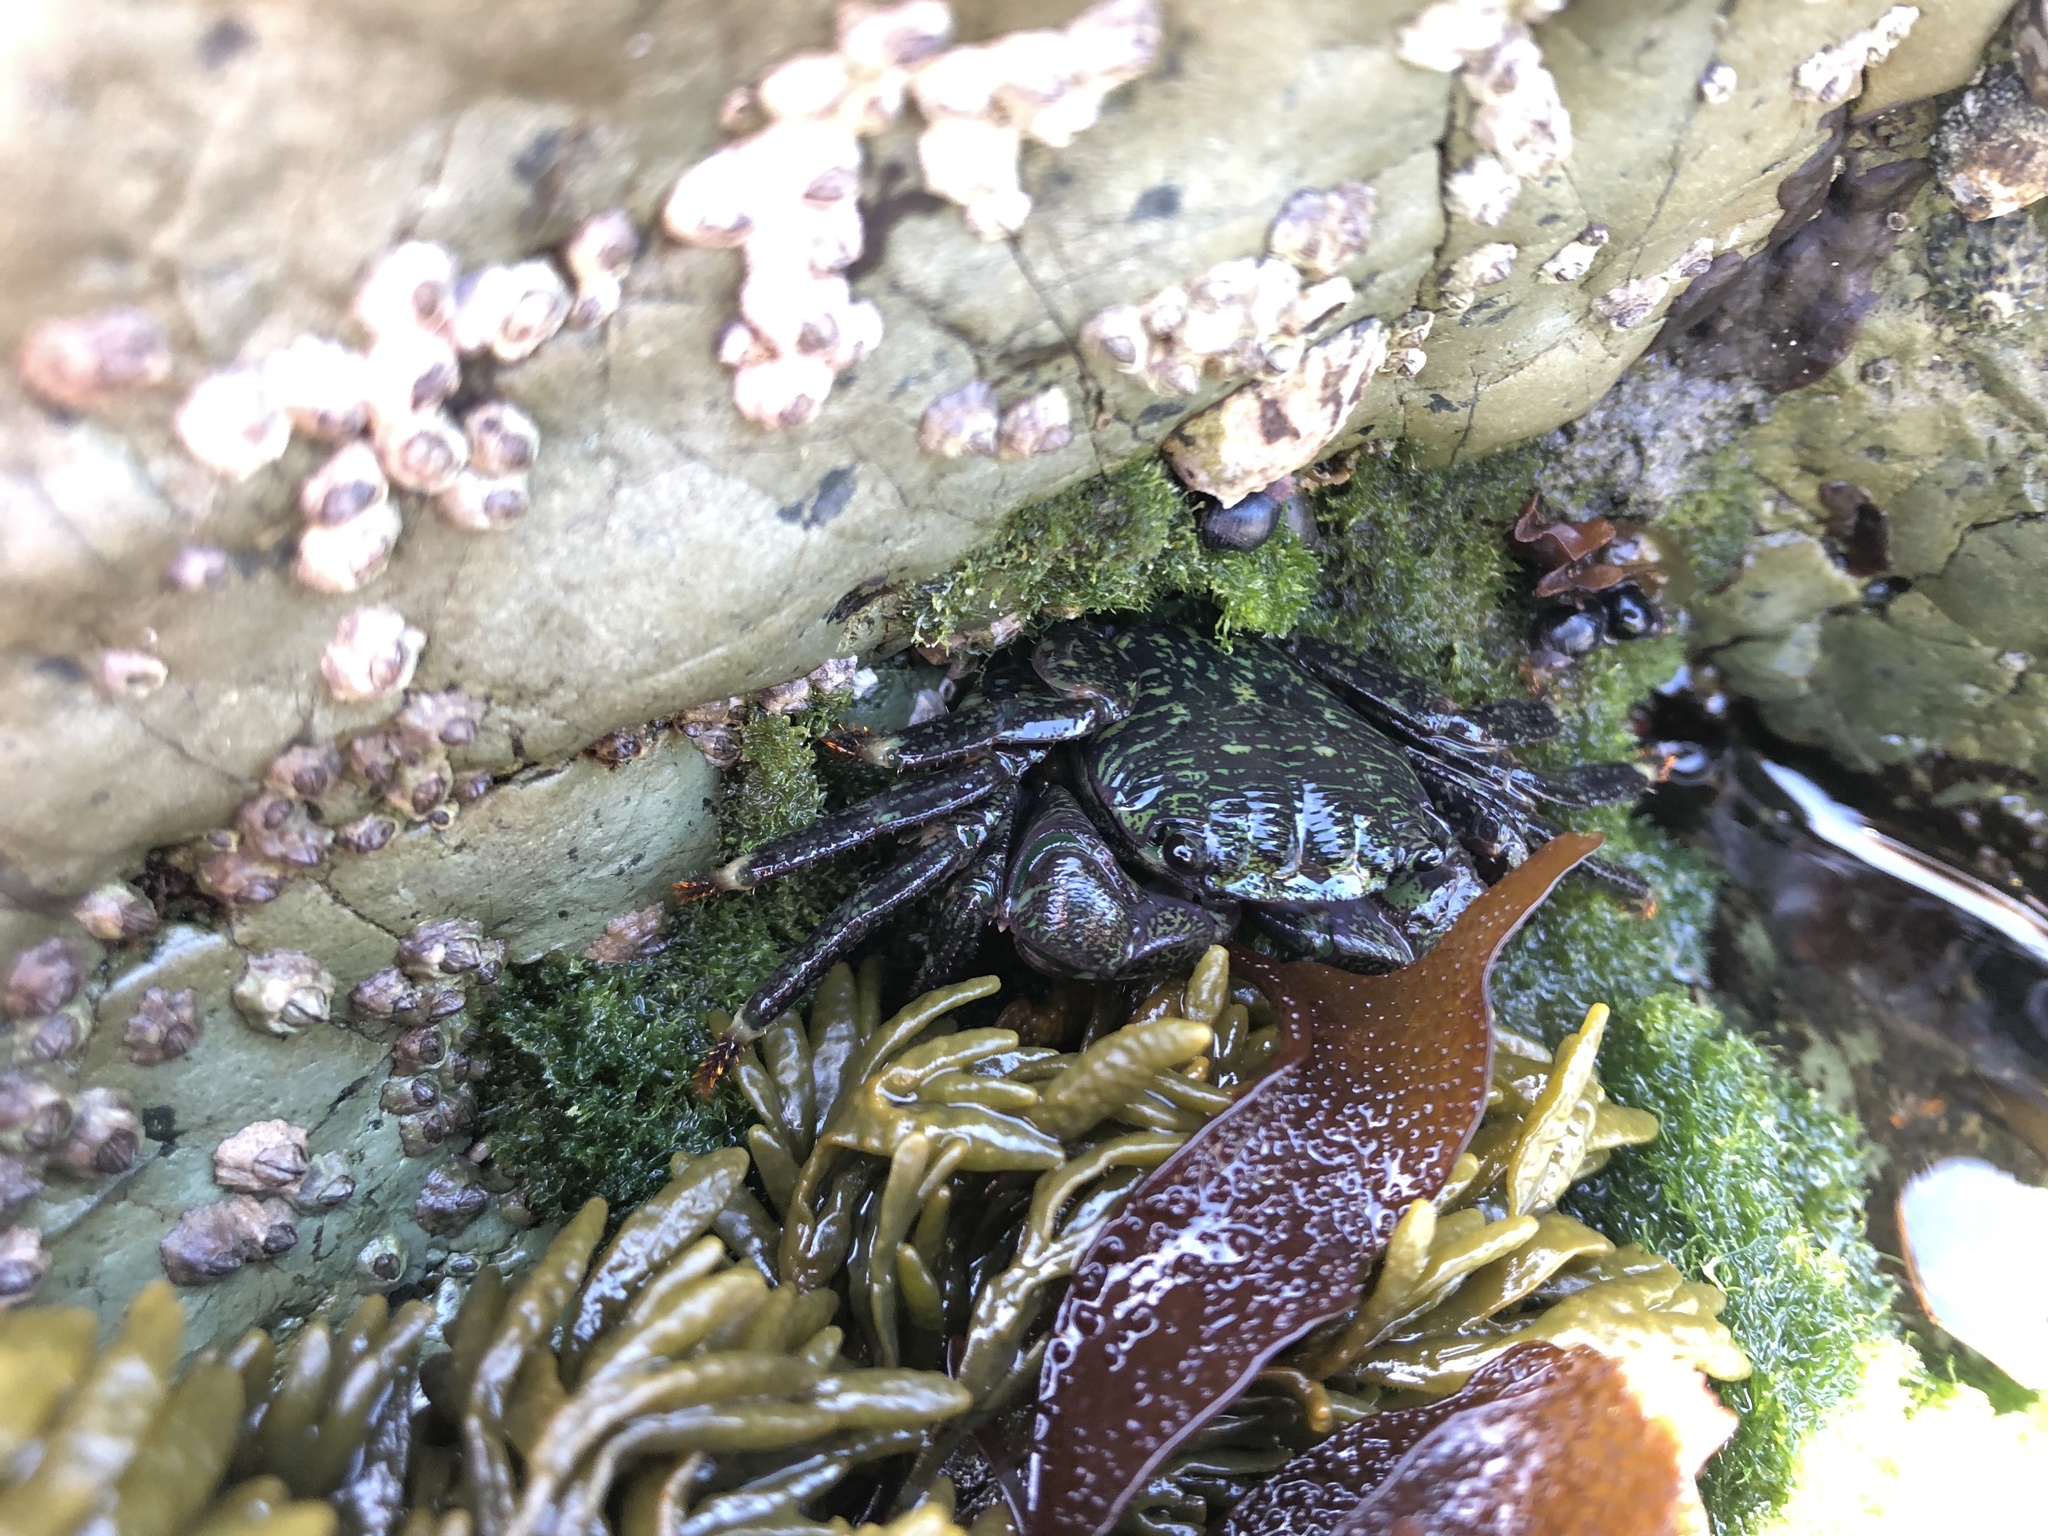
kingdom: Animalia
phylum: Arthropoda
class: Malacostraca
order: Decapoda
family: Grapsidae
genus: Pachygrapsus
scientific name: Pachygrapsus crassipes
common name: Striped shore crab
